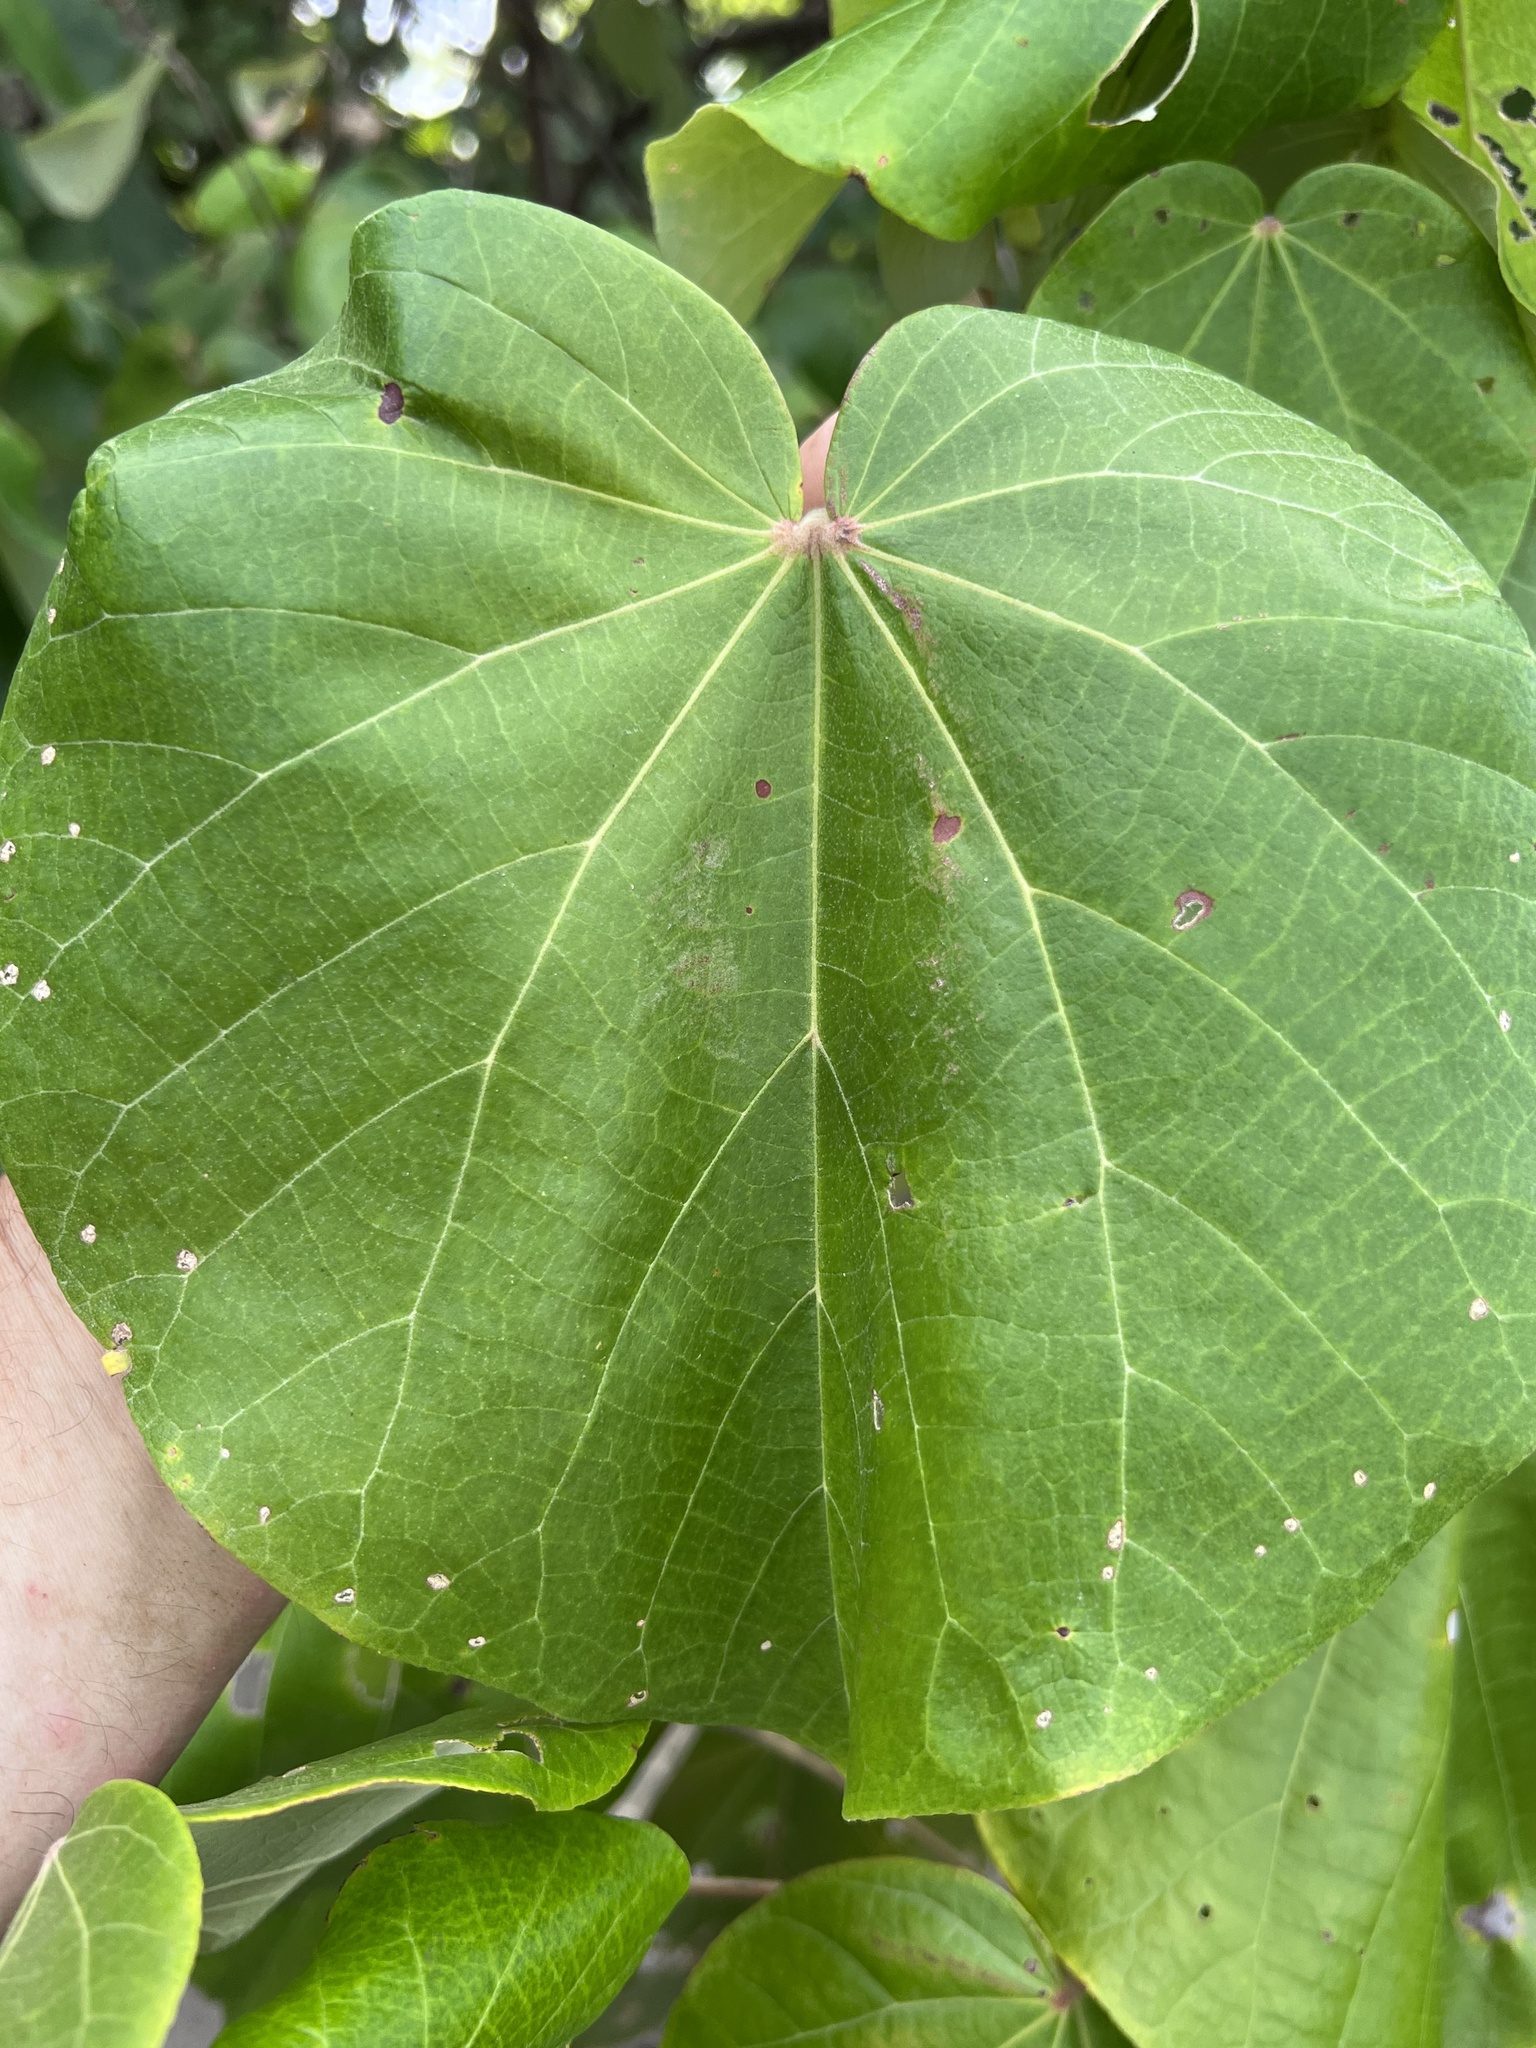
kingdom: Plantae
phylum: Tracheophyta
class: Magnoliopsida
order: Malvales
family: Malvaceae
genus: Talipariti
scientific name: Talipariti tiliaceum
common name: Sea hibiscus
